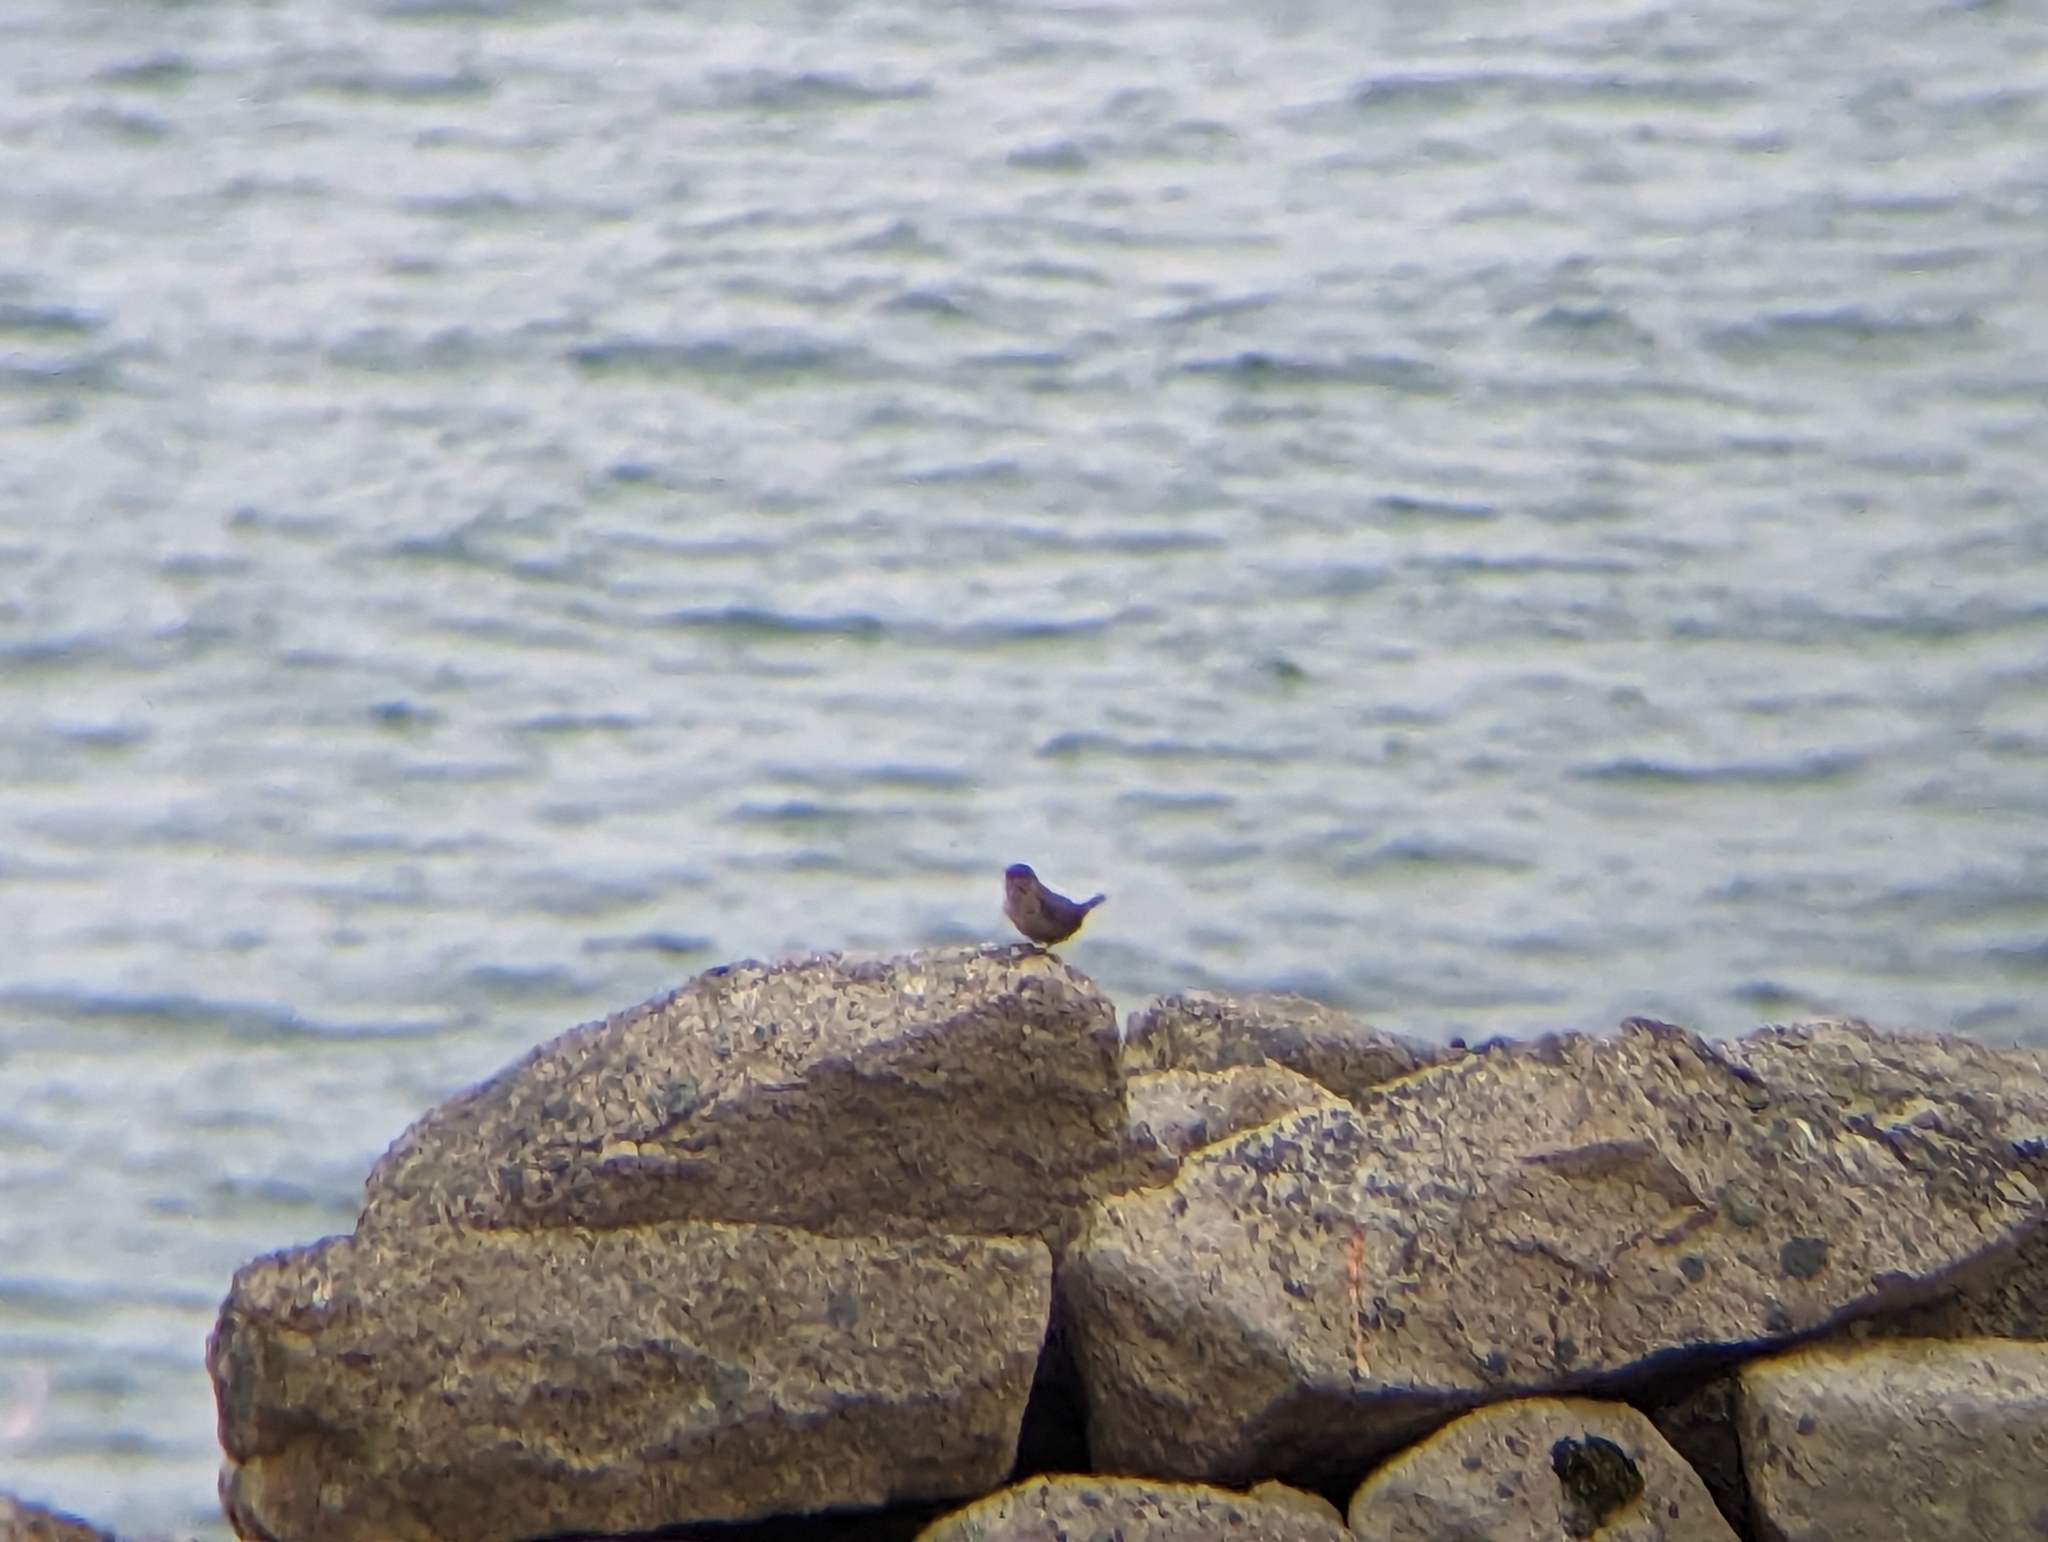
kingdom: Animalia
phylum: Chordata
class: Aves
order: Passeriformes
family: Troglodytidae
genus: Troglodytes
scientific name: Troglodytes troglodytes
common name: Eurasian wren
